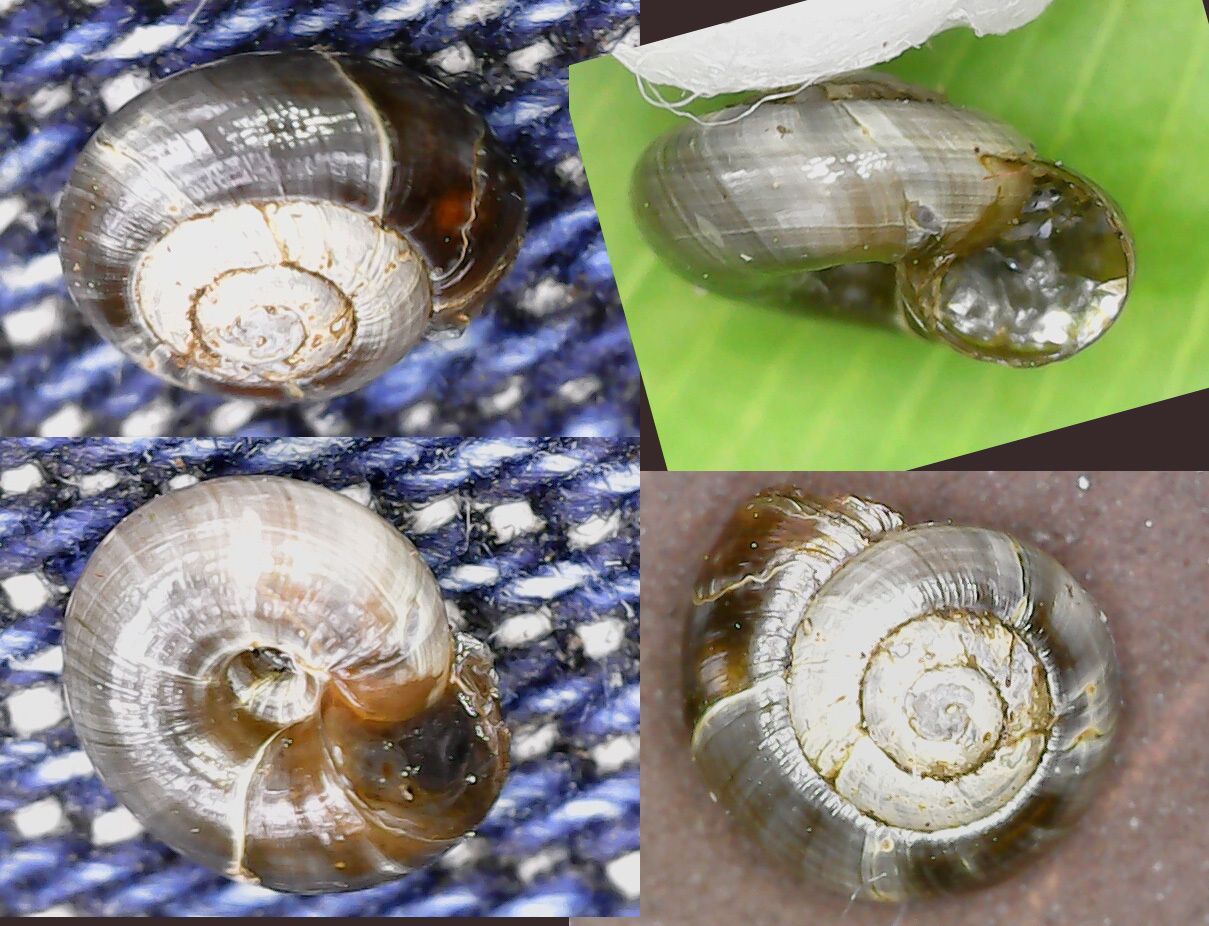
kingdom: Animalia
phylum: Mollusca
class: Gastropoda
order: Stylommatophora
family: Gastrodontidae
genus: Zonitoides
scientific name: Zonitoides nitidus
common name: Shiny glass snail
